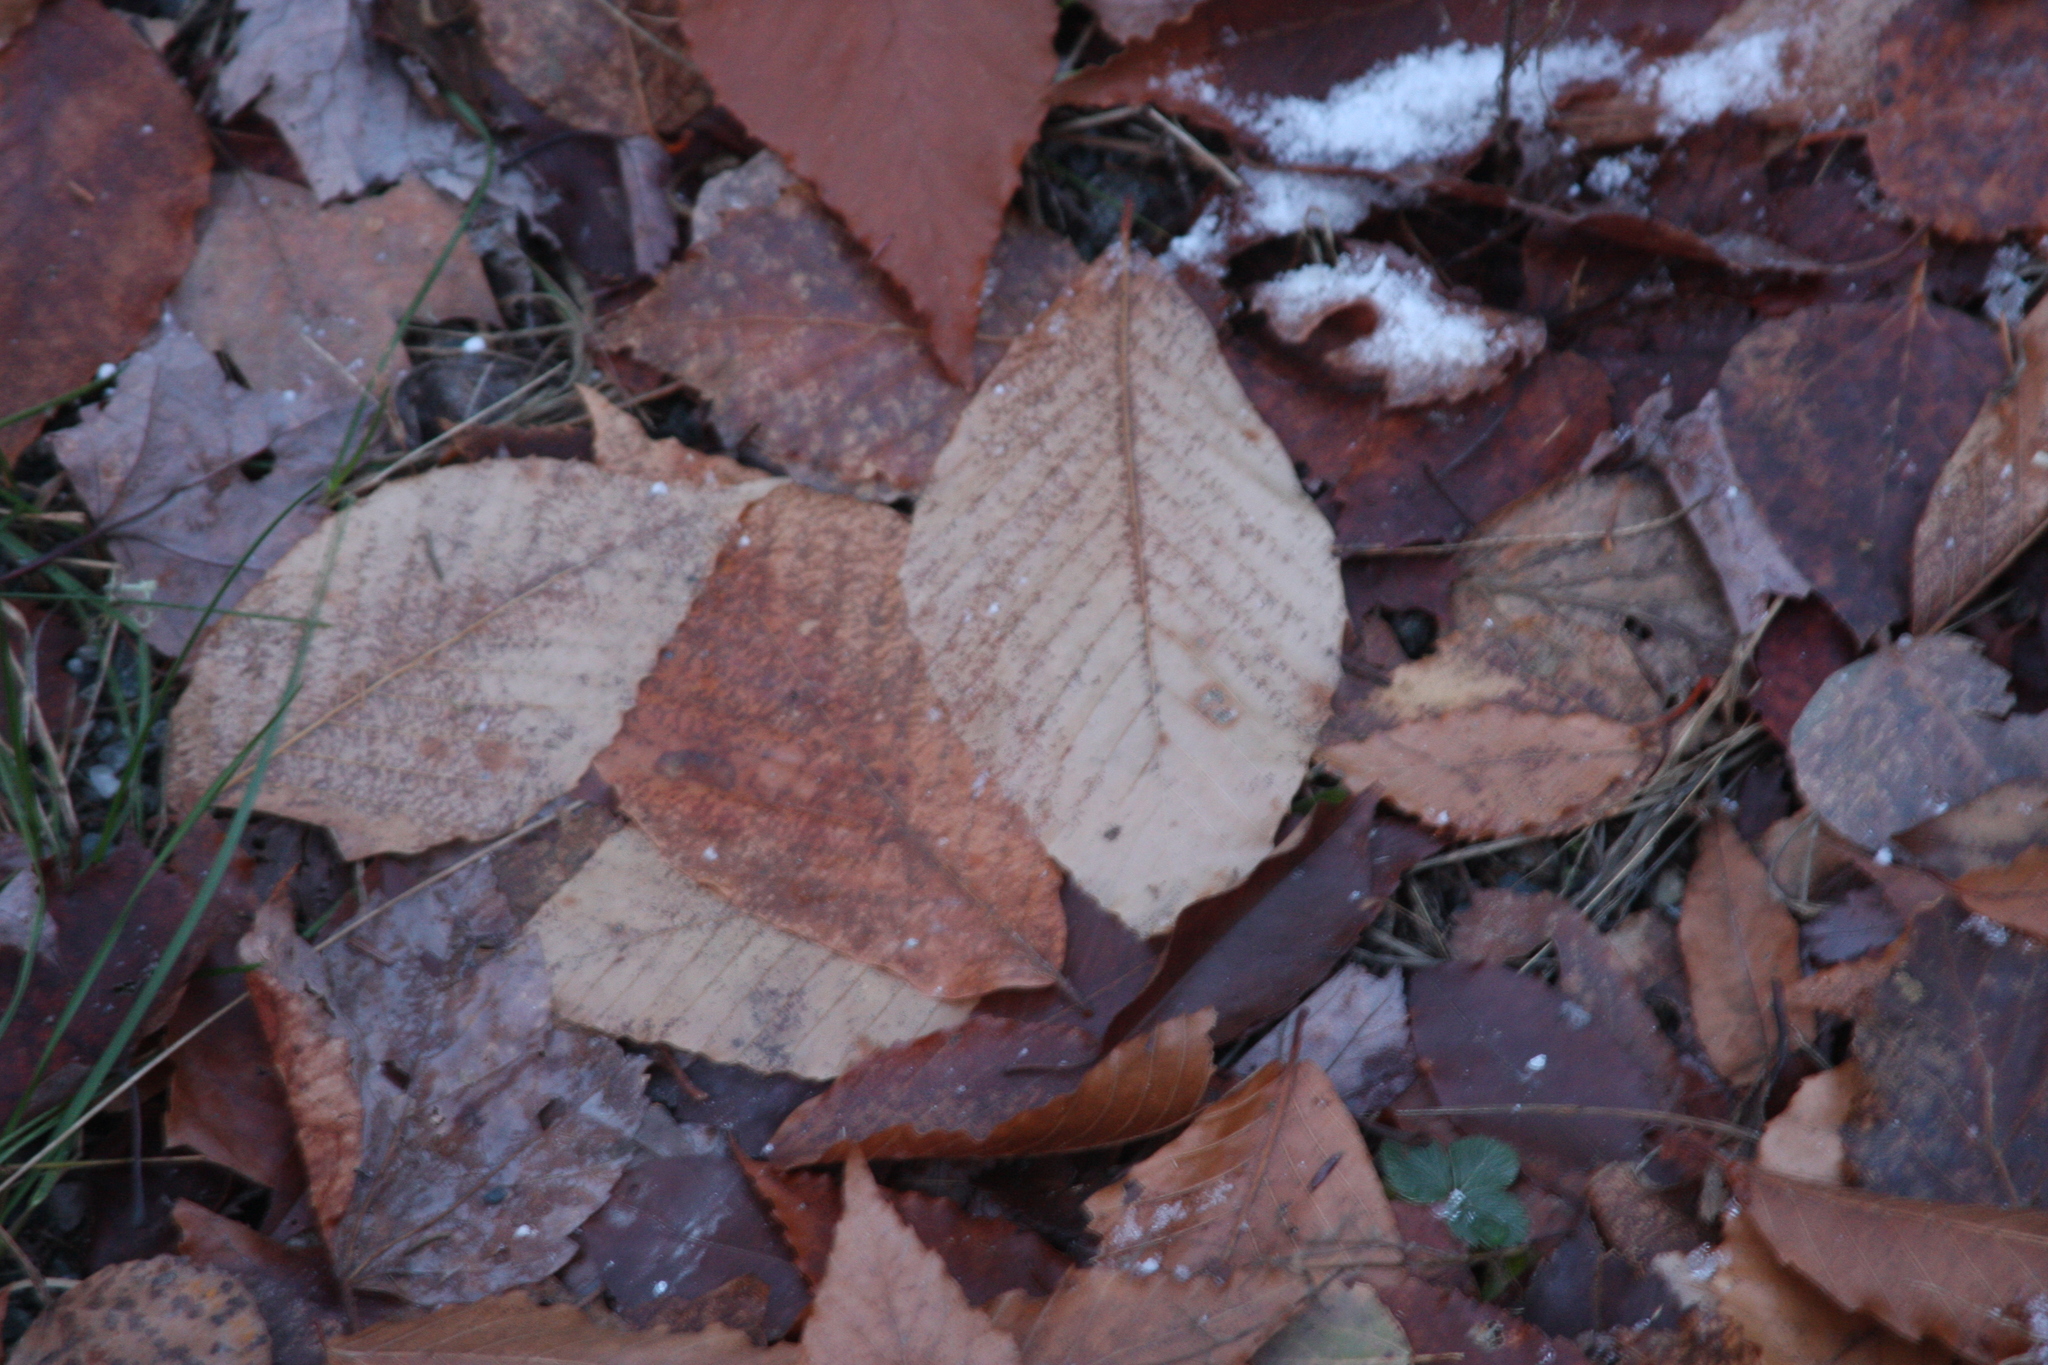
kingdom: Plantae
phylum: Tracheophyta
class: Magnoliopsida
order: Fagales
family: Fagaceae
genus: Fagus
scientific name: Fagus grandifolia
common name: American beech
